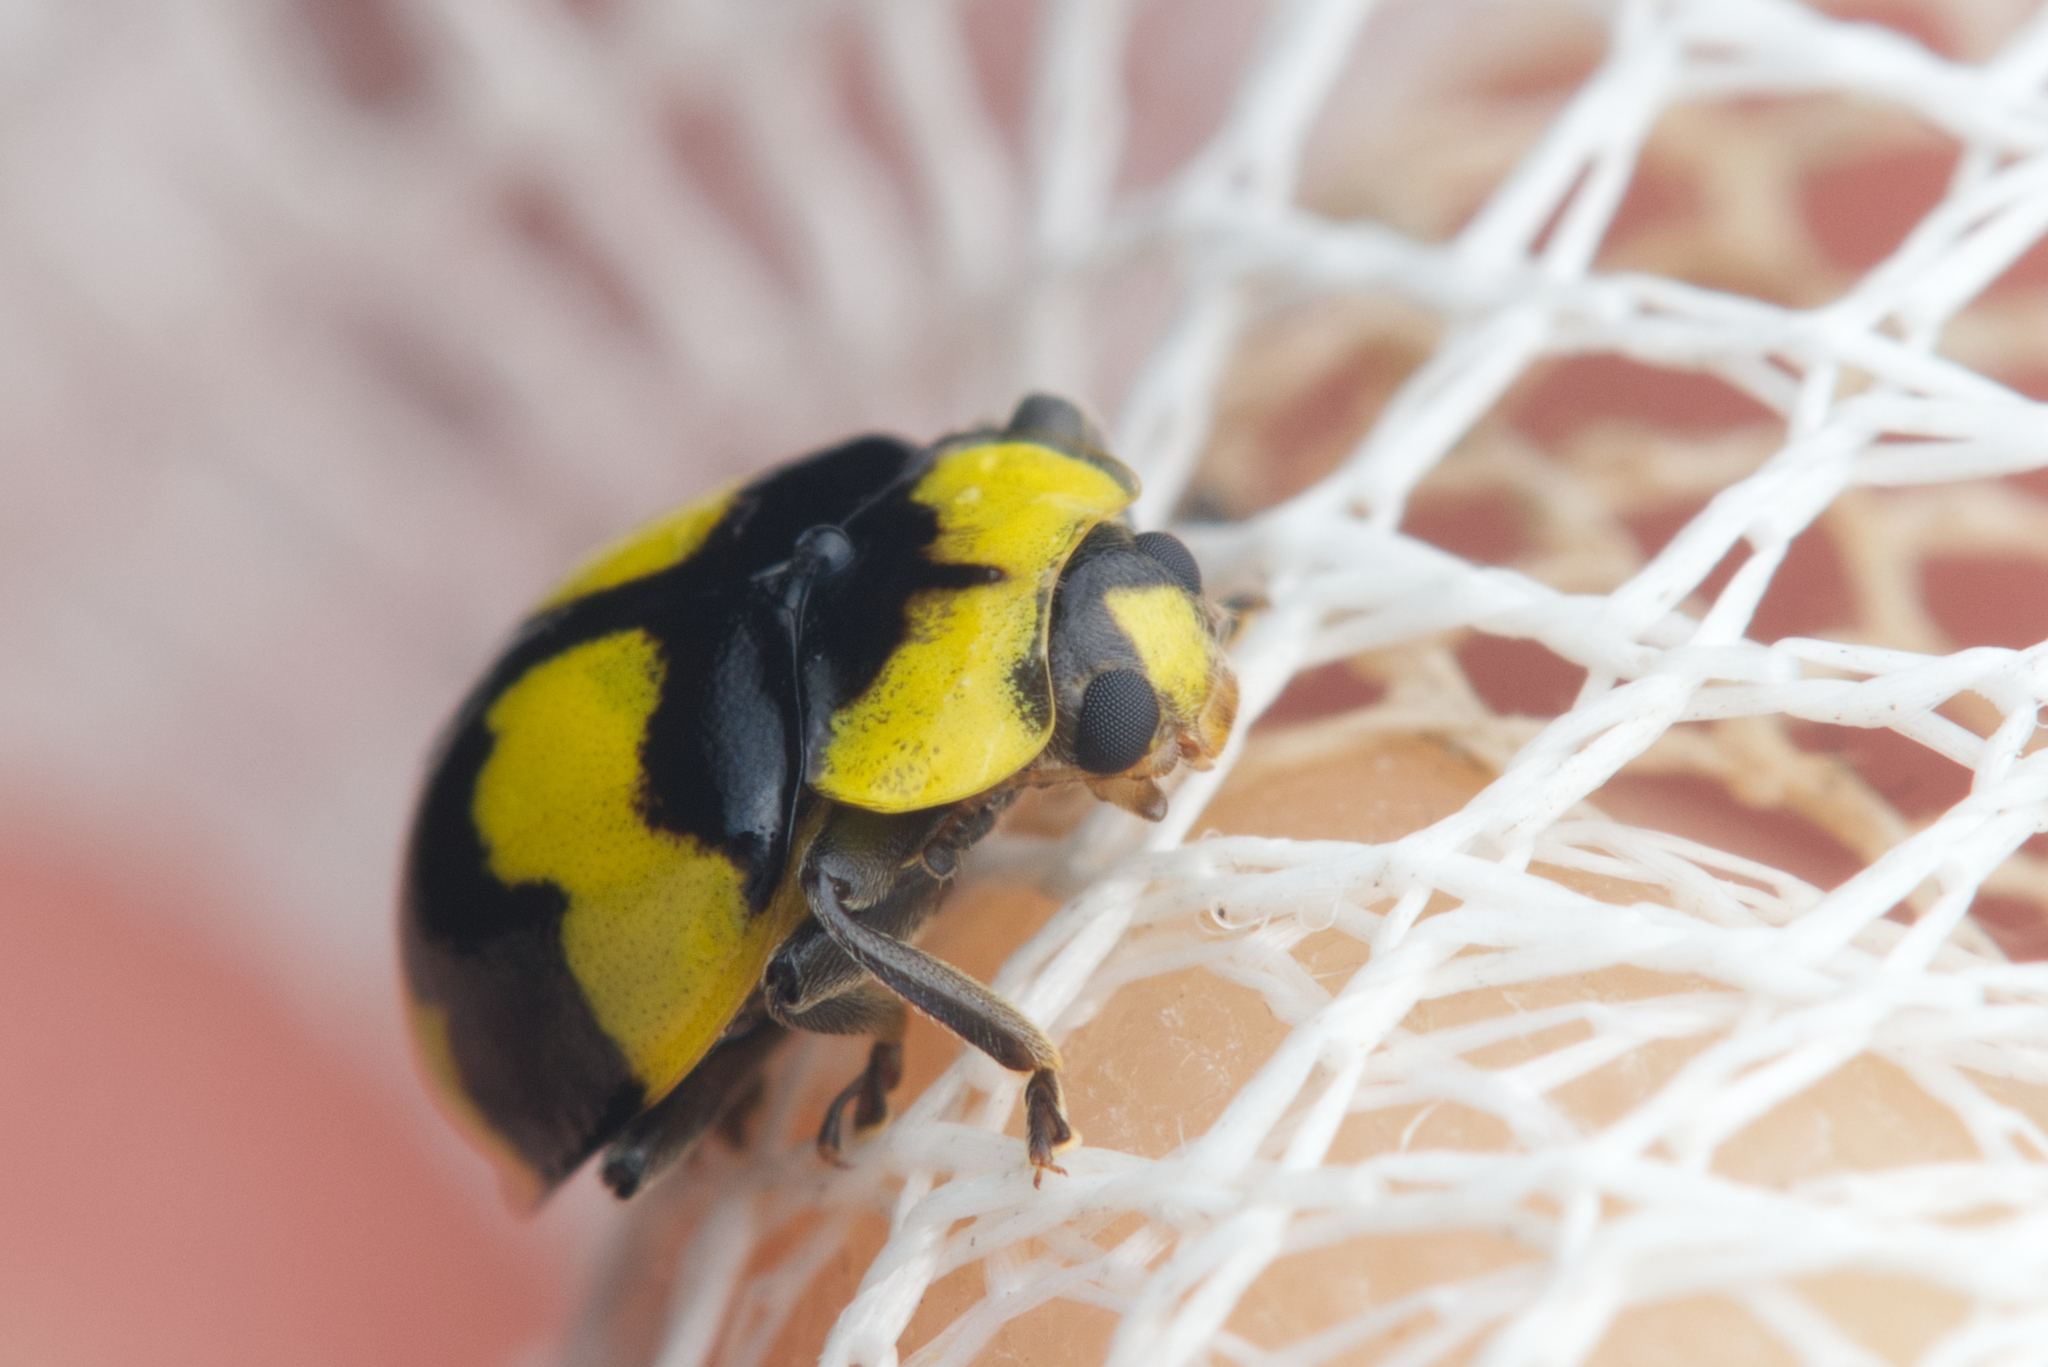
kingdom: Animalia
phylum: Arthropoda
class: Insecta
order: Coleoptera
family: Coccinellidae
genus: Illeis
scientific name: Illeis galbula
